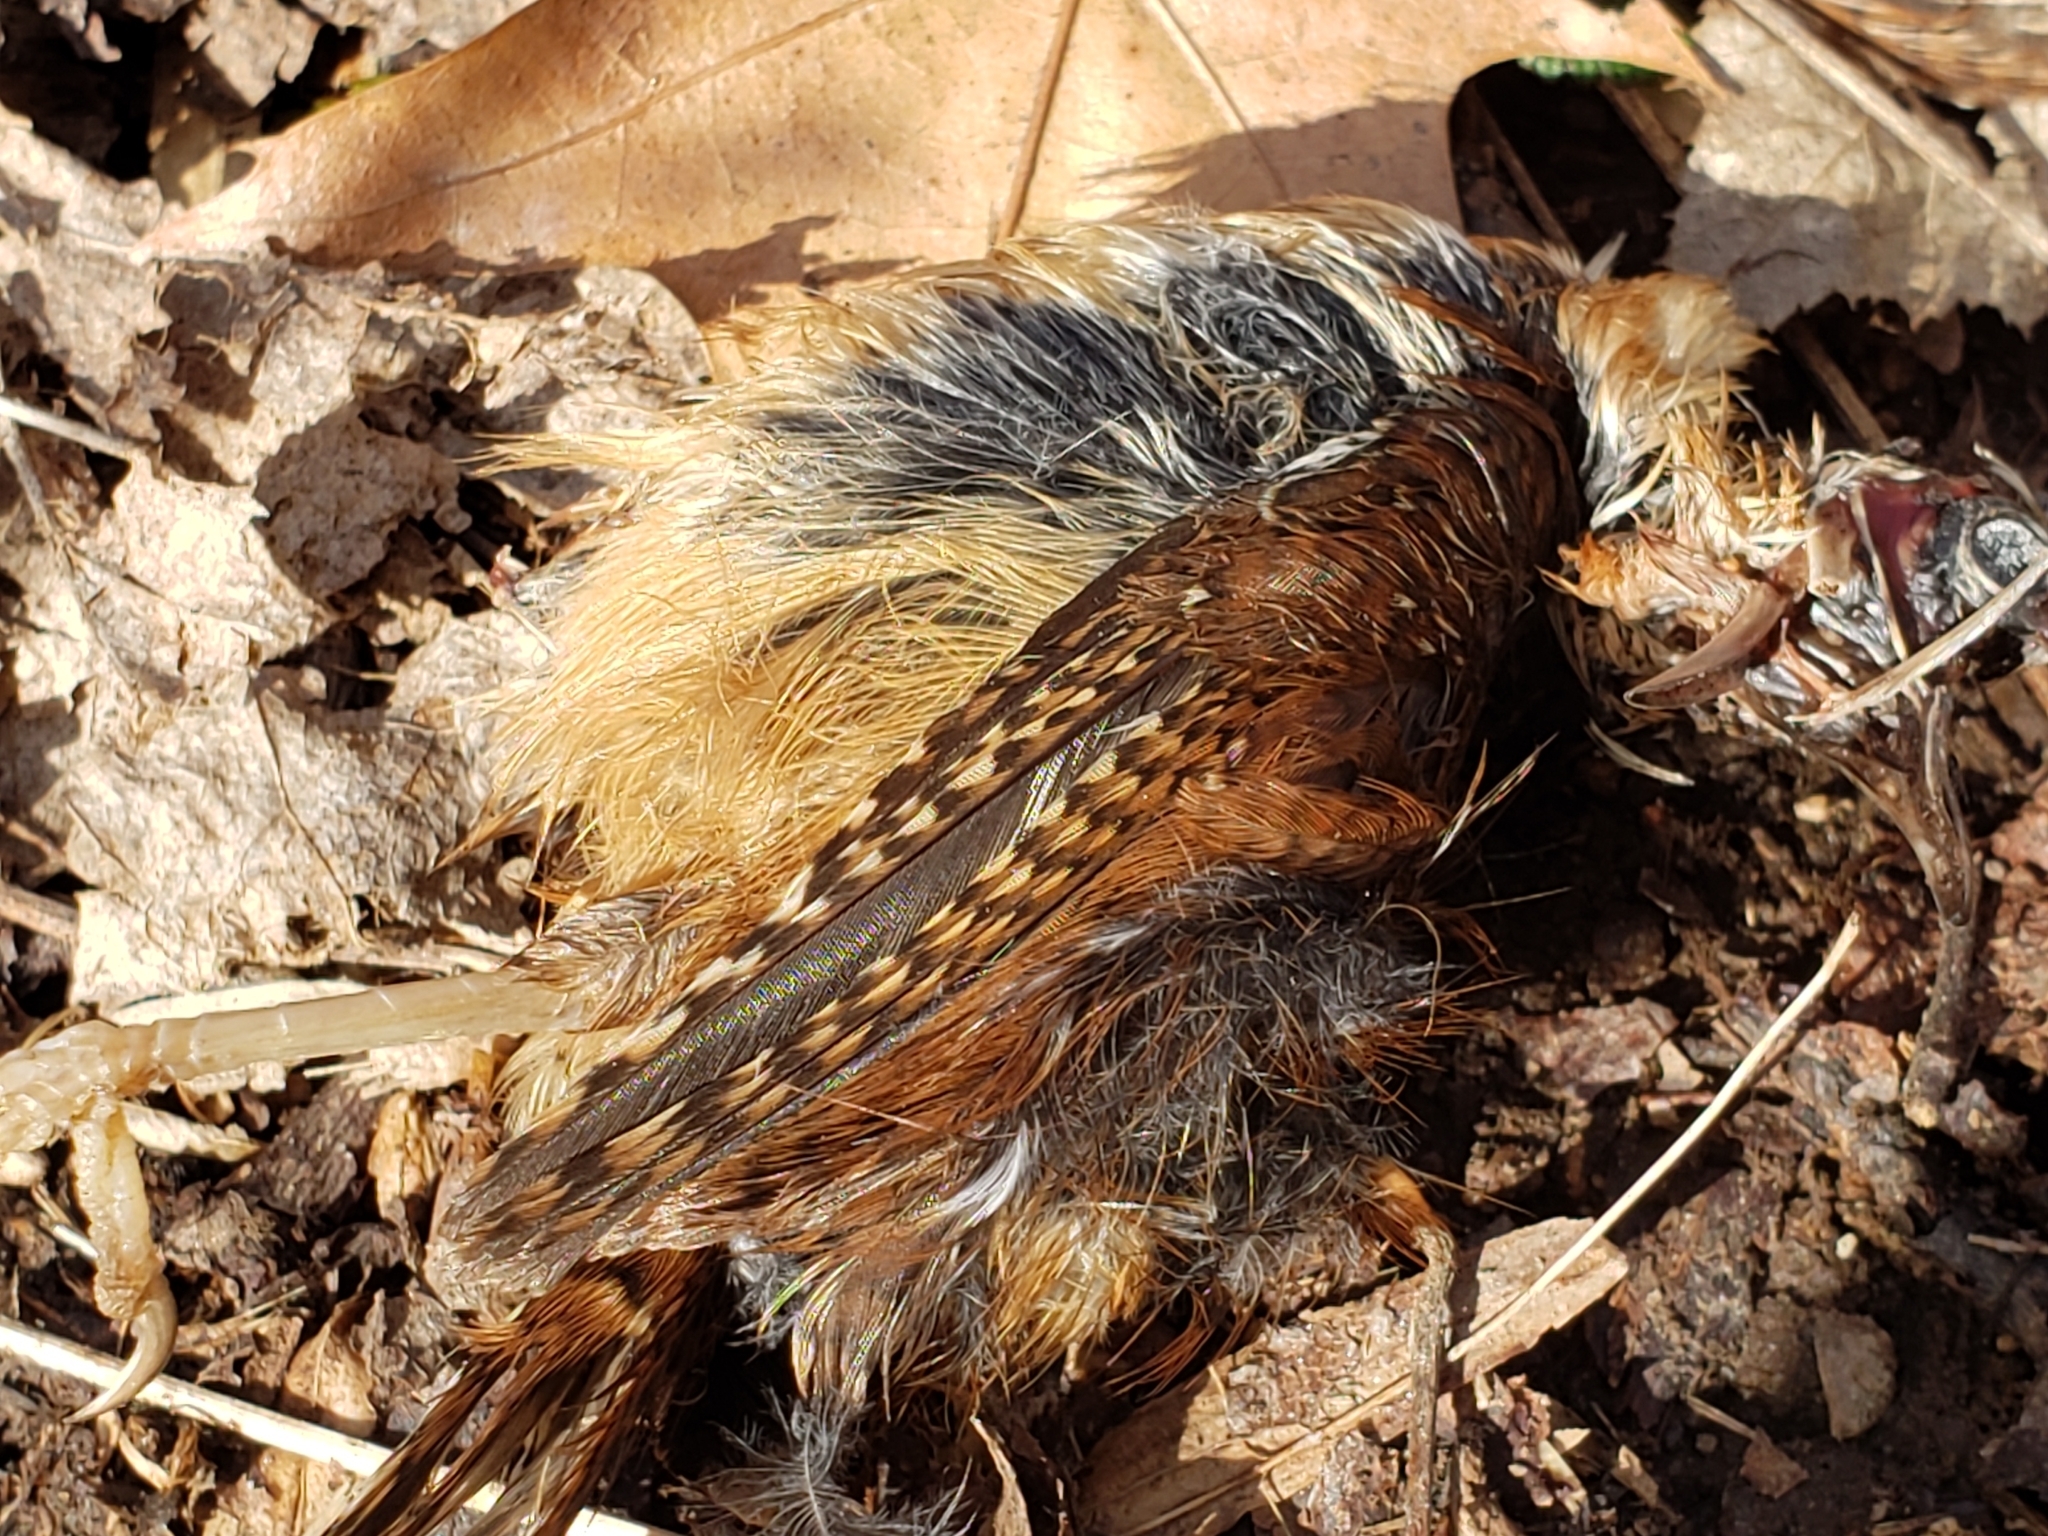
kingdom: Animalia
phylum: Chordata
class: Aves
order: Passeriformes
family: Troglodytidae
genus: Thryothorus
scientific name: Thryothorus ludovicianus
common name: Carolina wren
